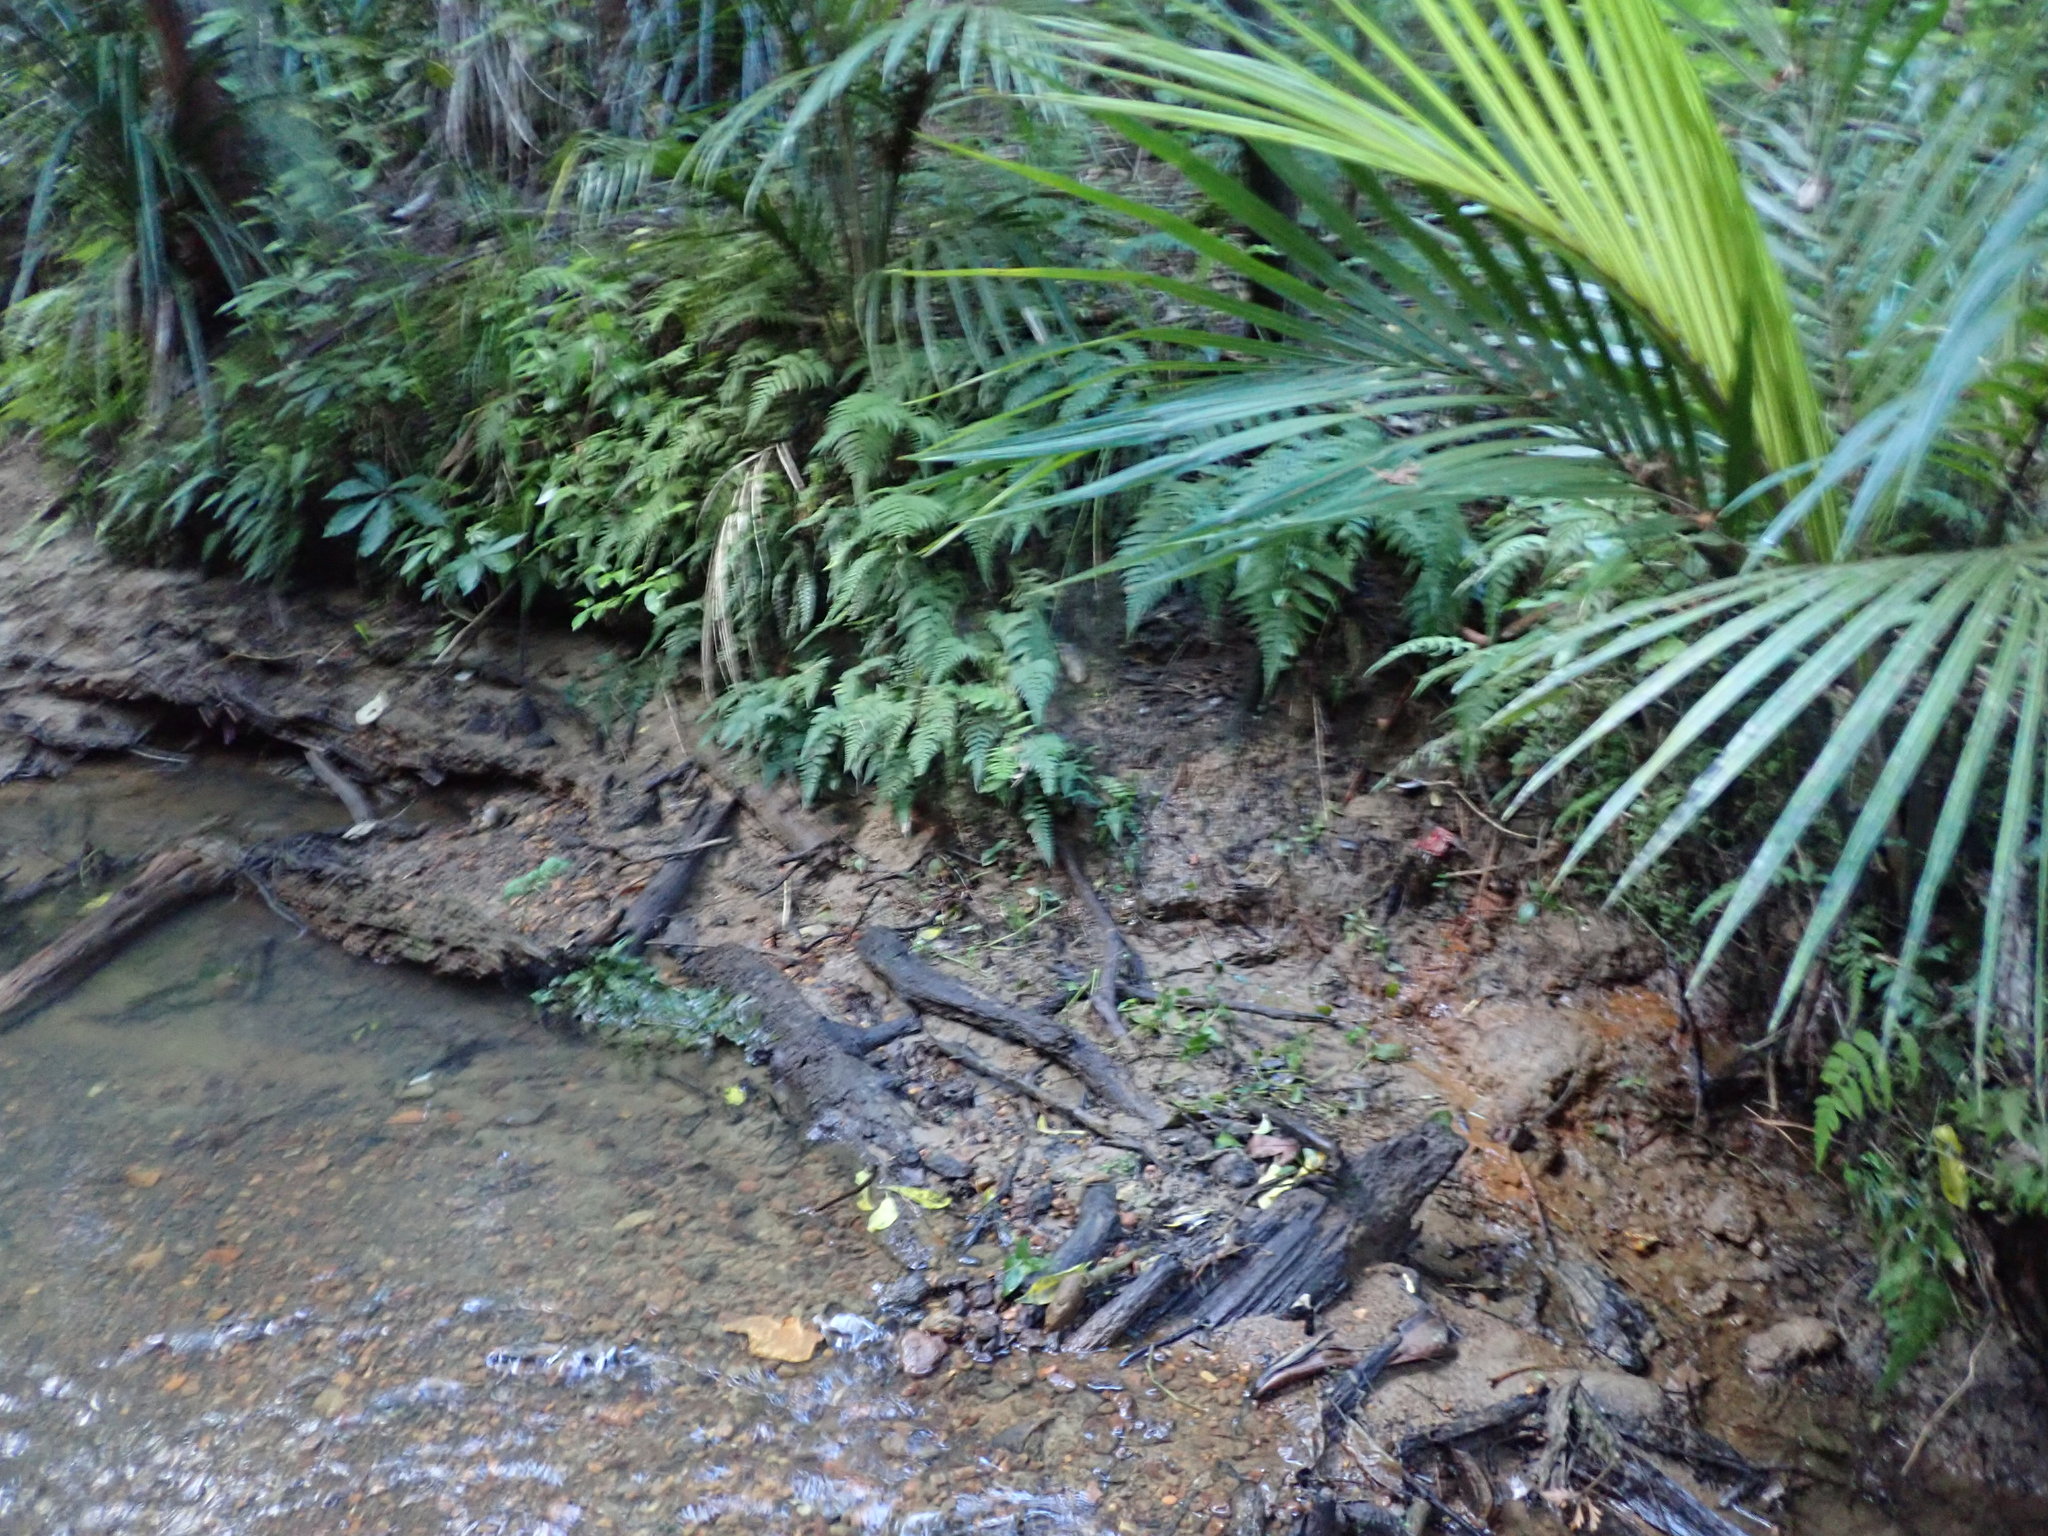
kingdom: Plantae
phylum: Tracheophyta
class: Liliopsida
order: Arecales
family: Arecaceae
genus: Rhopalostylis
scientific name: Rhopalostylis sapida
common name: Feather-duster palm
